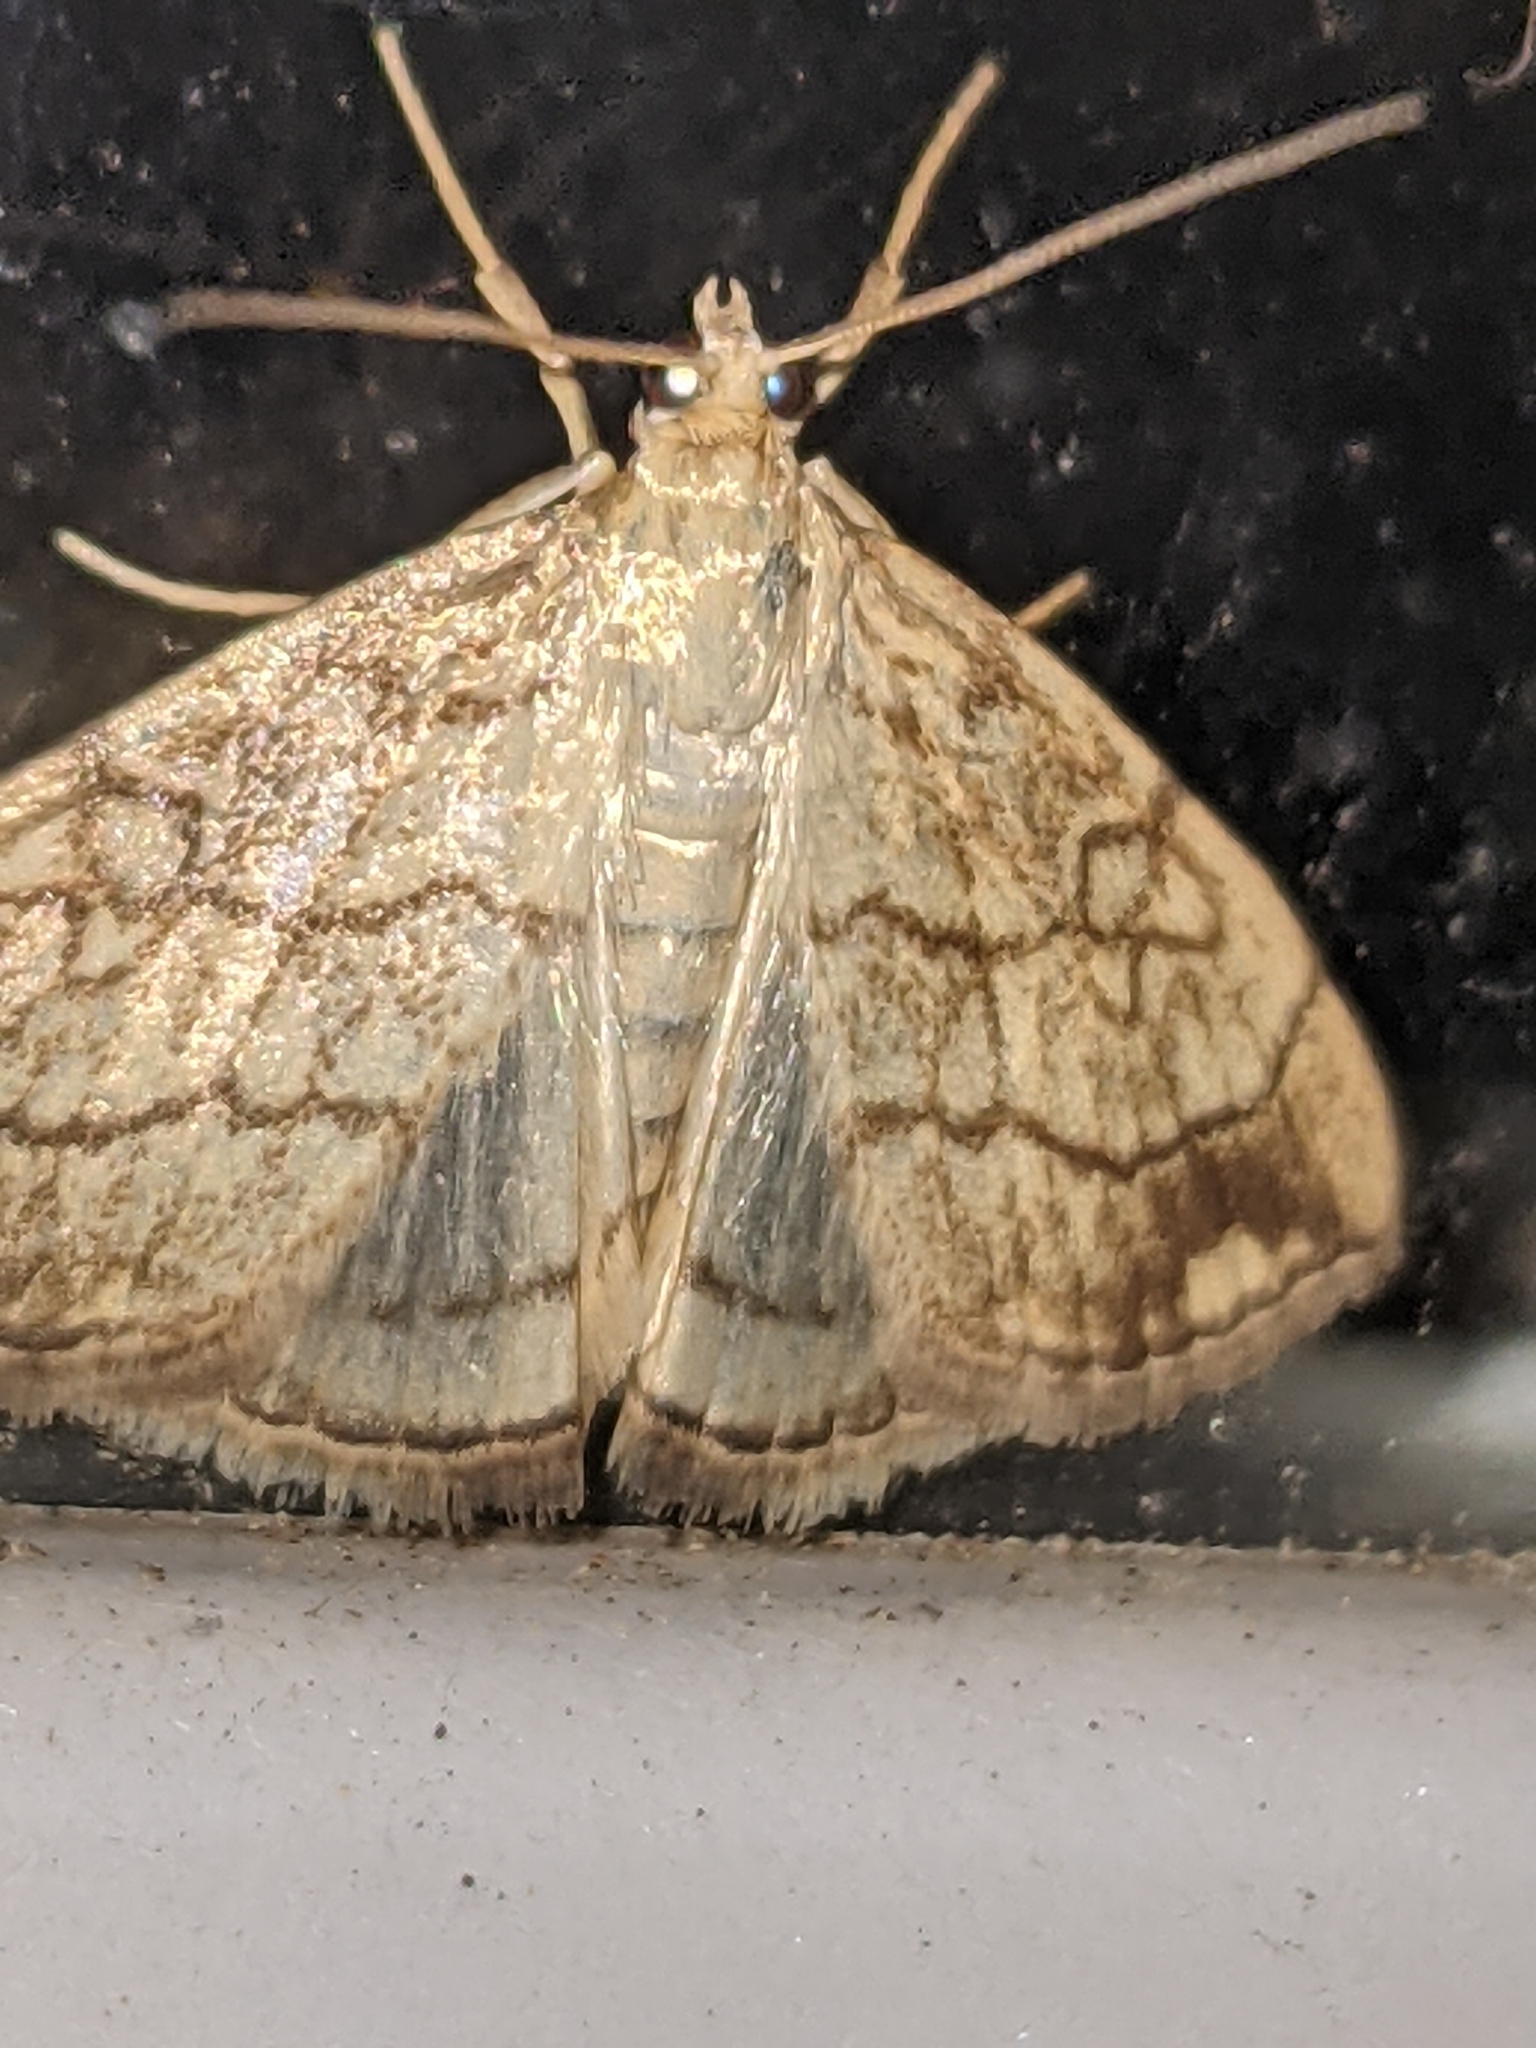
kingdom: Animalia
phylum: Arthropoda
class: Insecta
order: Lepidoptera
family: Crambidae
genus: Evergestis
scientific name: Evergestis pallidata
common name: Chequered pearl
